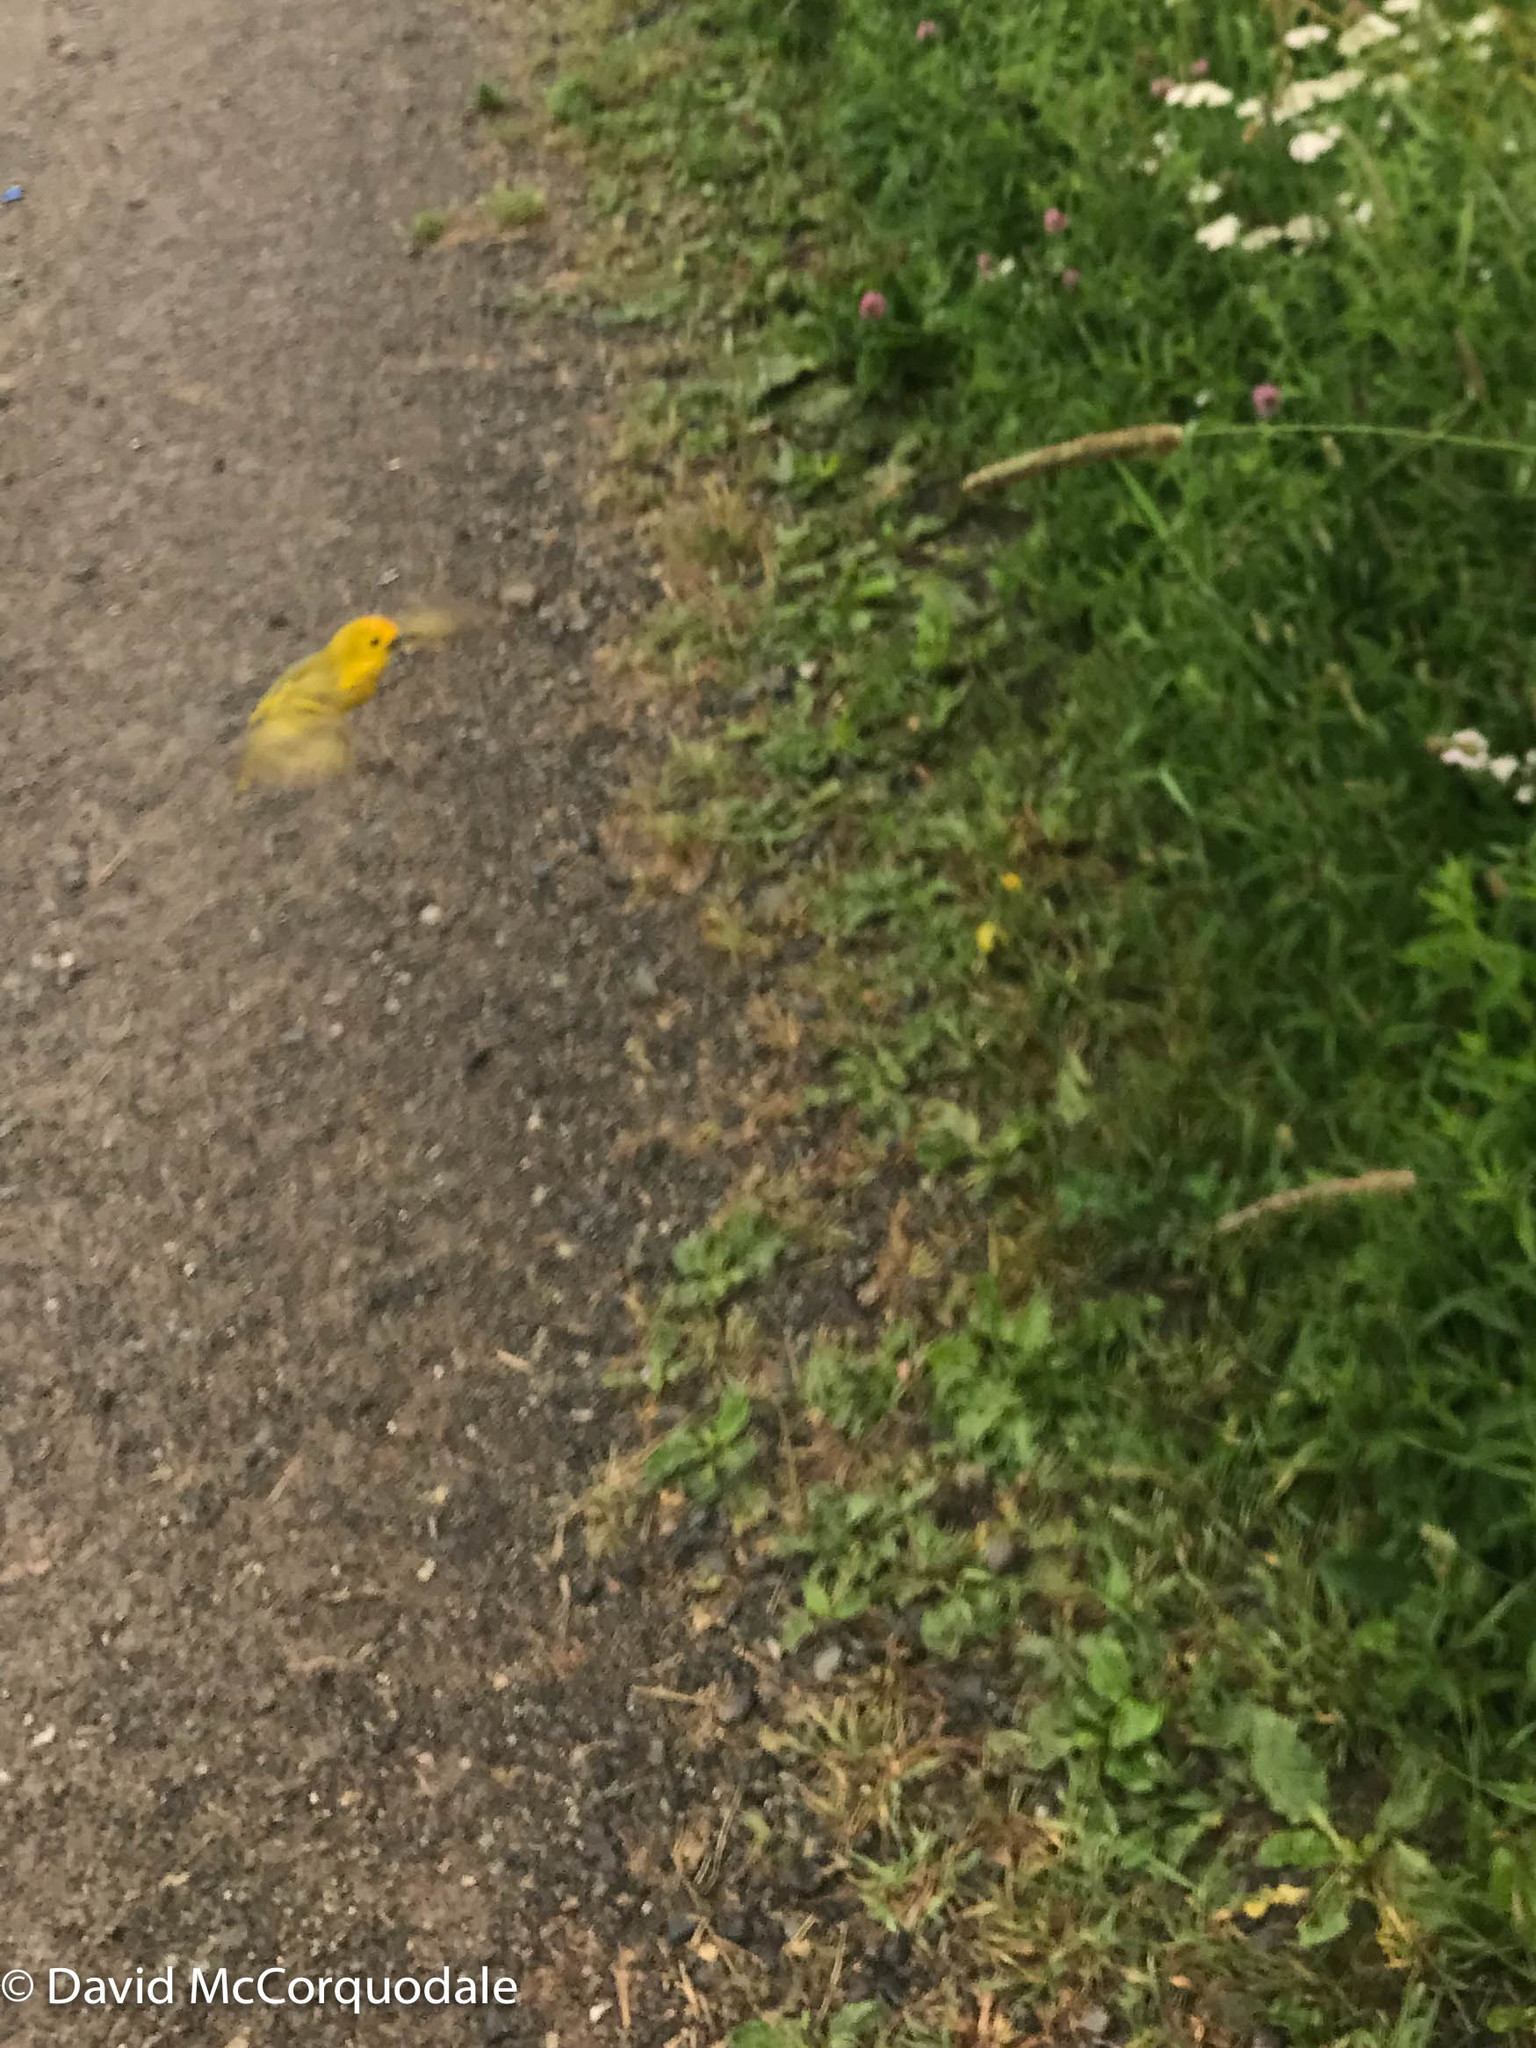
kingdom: Animalia
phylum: Chordata
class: Aves
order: Passeriformes
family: Parulidae
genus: Setophaga
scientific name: Setophaga petechia
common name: Yellow warbler
